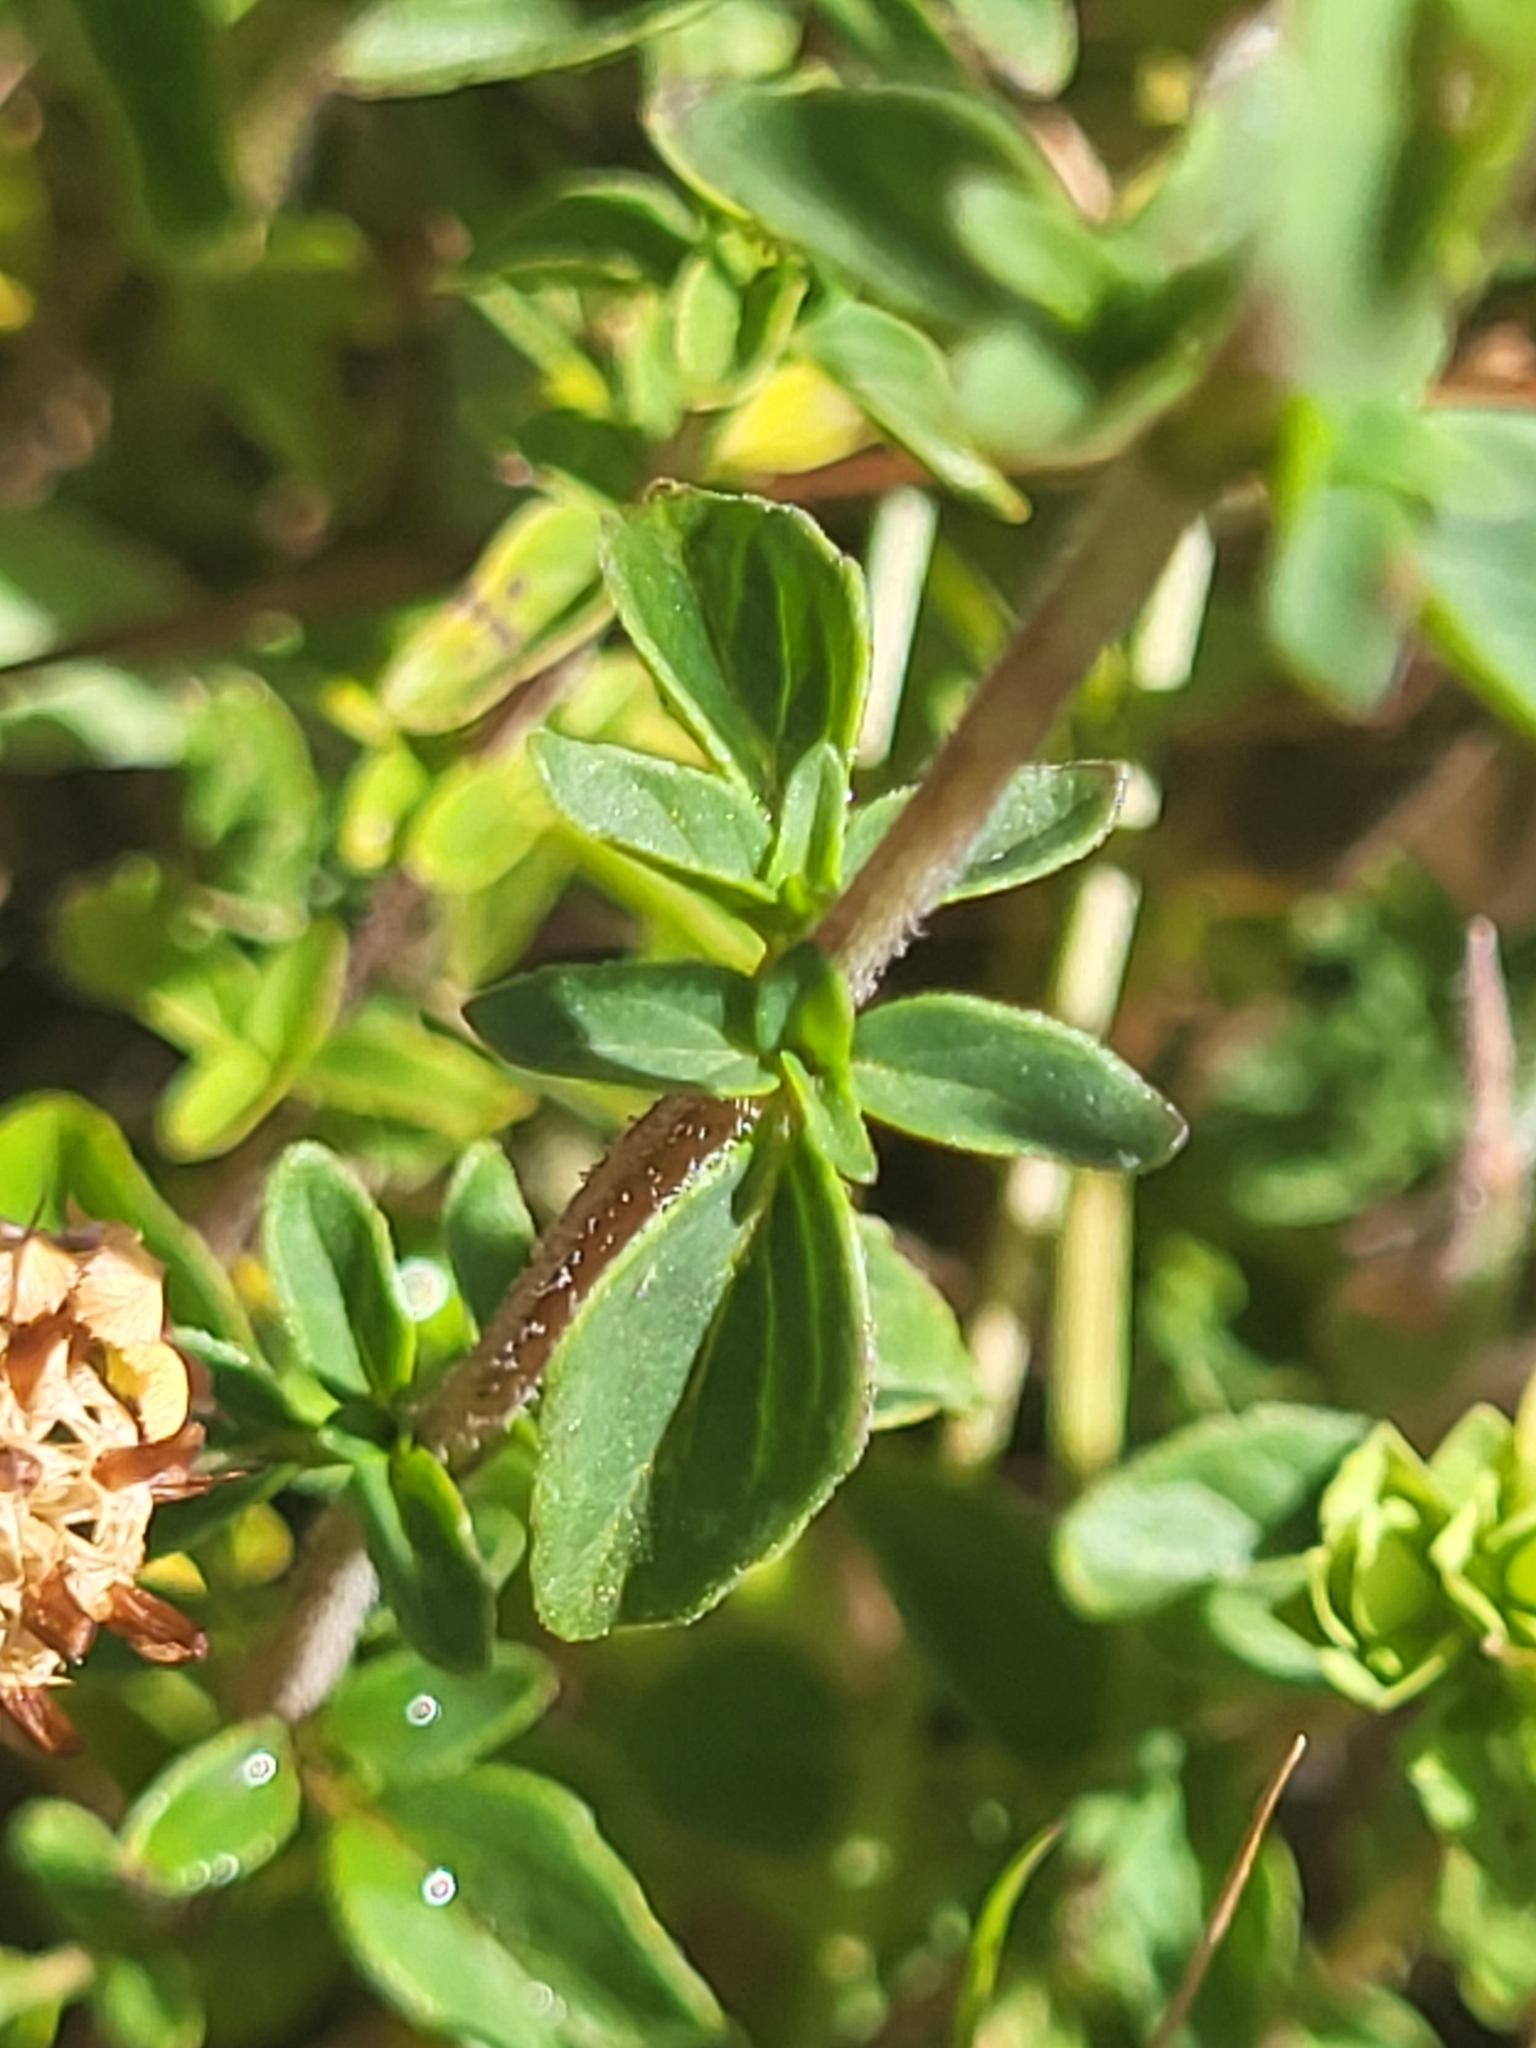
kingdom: Plantae
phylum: Tracheophyta
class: Magnoliopsida
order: Lamiales
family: Lamiaceae
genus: Origanum
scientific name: Origanum vulgare
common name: Wild marjoram
